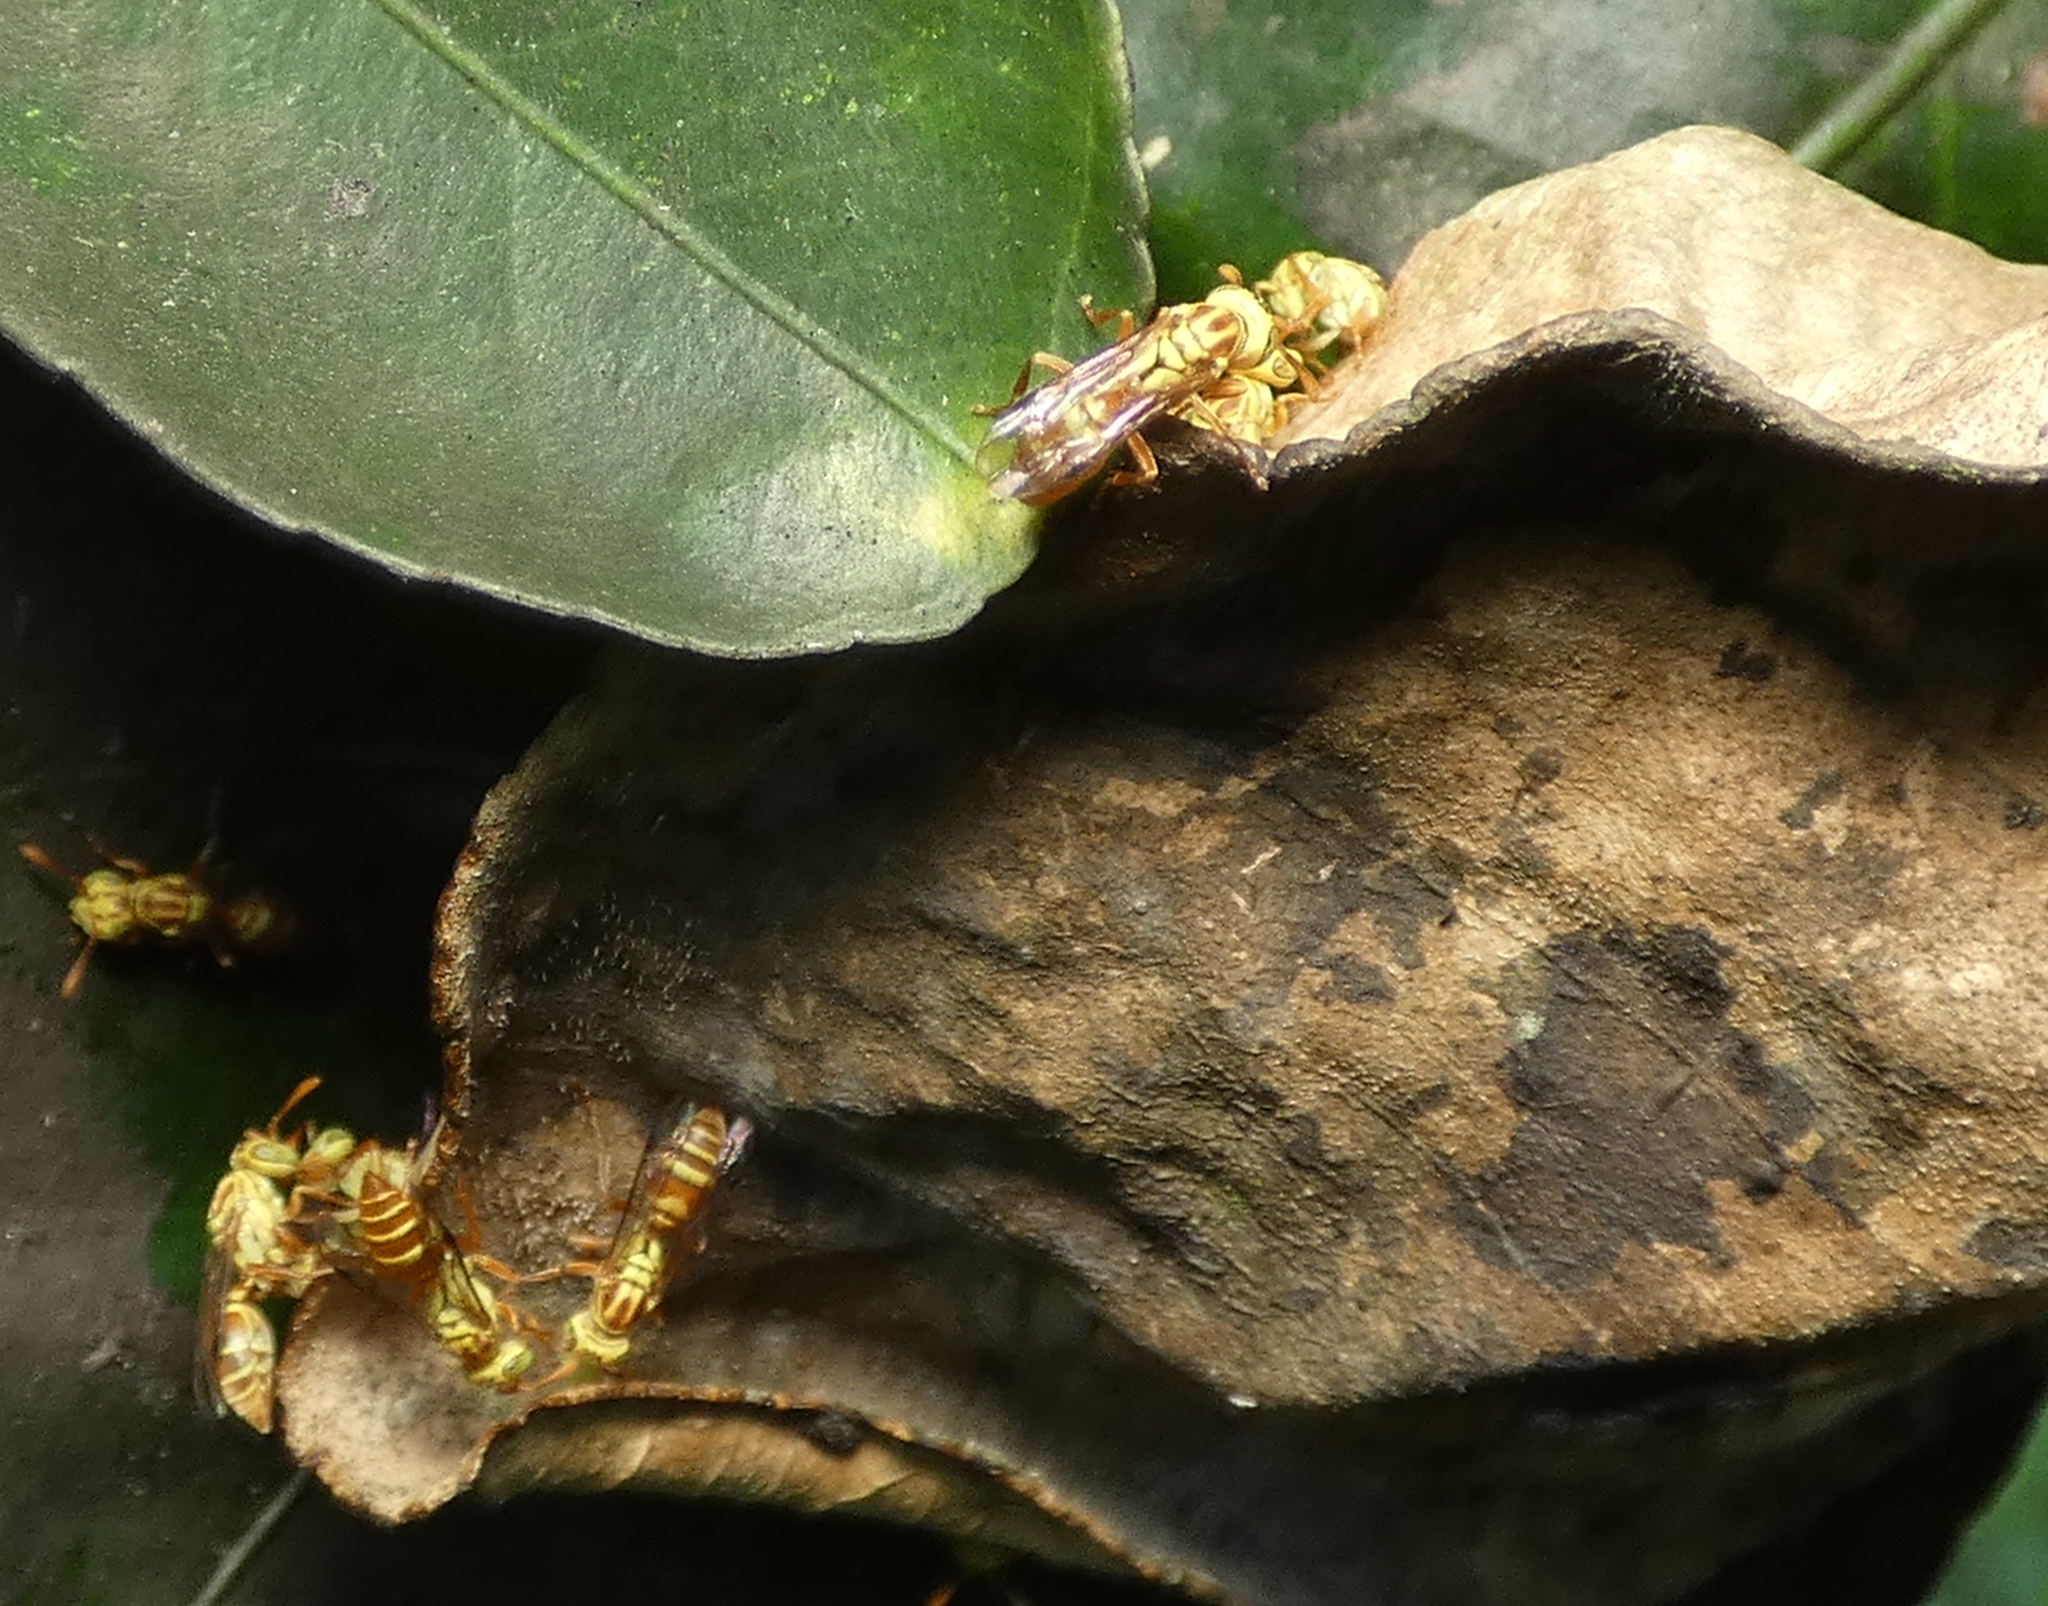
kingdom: Animalia
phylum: Arthropoda
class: Insecta
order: Hymenoptera
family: Vespidae
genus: Protopolybia
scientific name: Protopolybia potiguara
